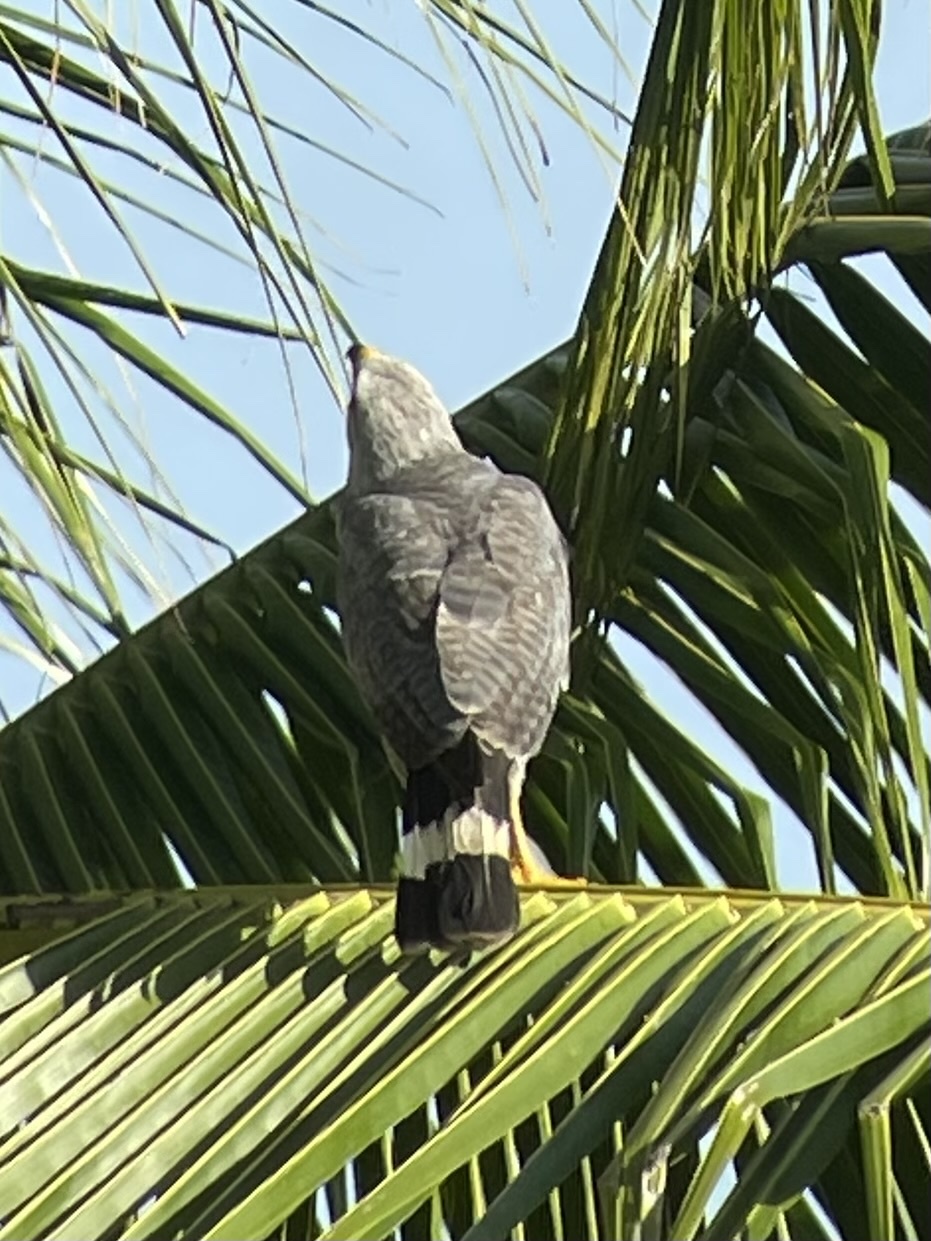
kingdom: Animalia
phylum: Chordata
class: Aves
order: Accipitriformes
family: Accipitridae
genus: Buteo
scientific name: Buteo nitidus
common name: Grey-lined hawk
